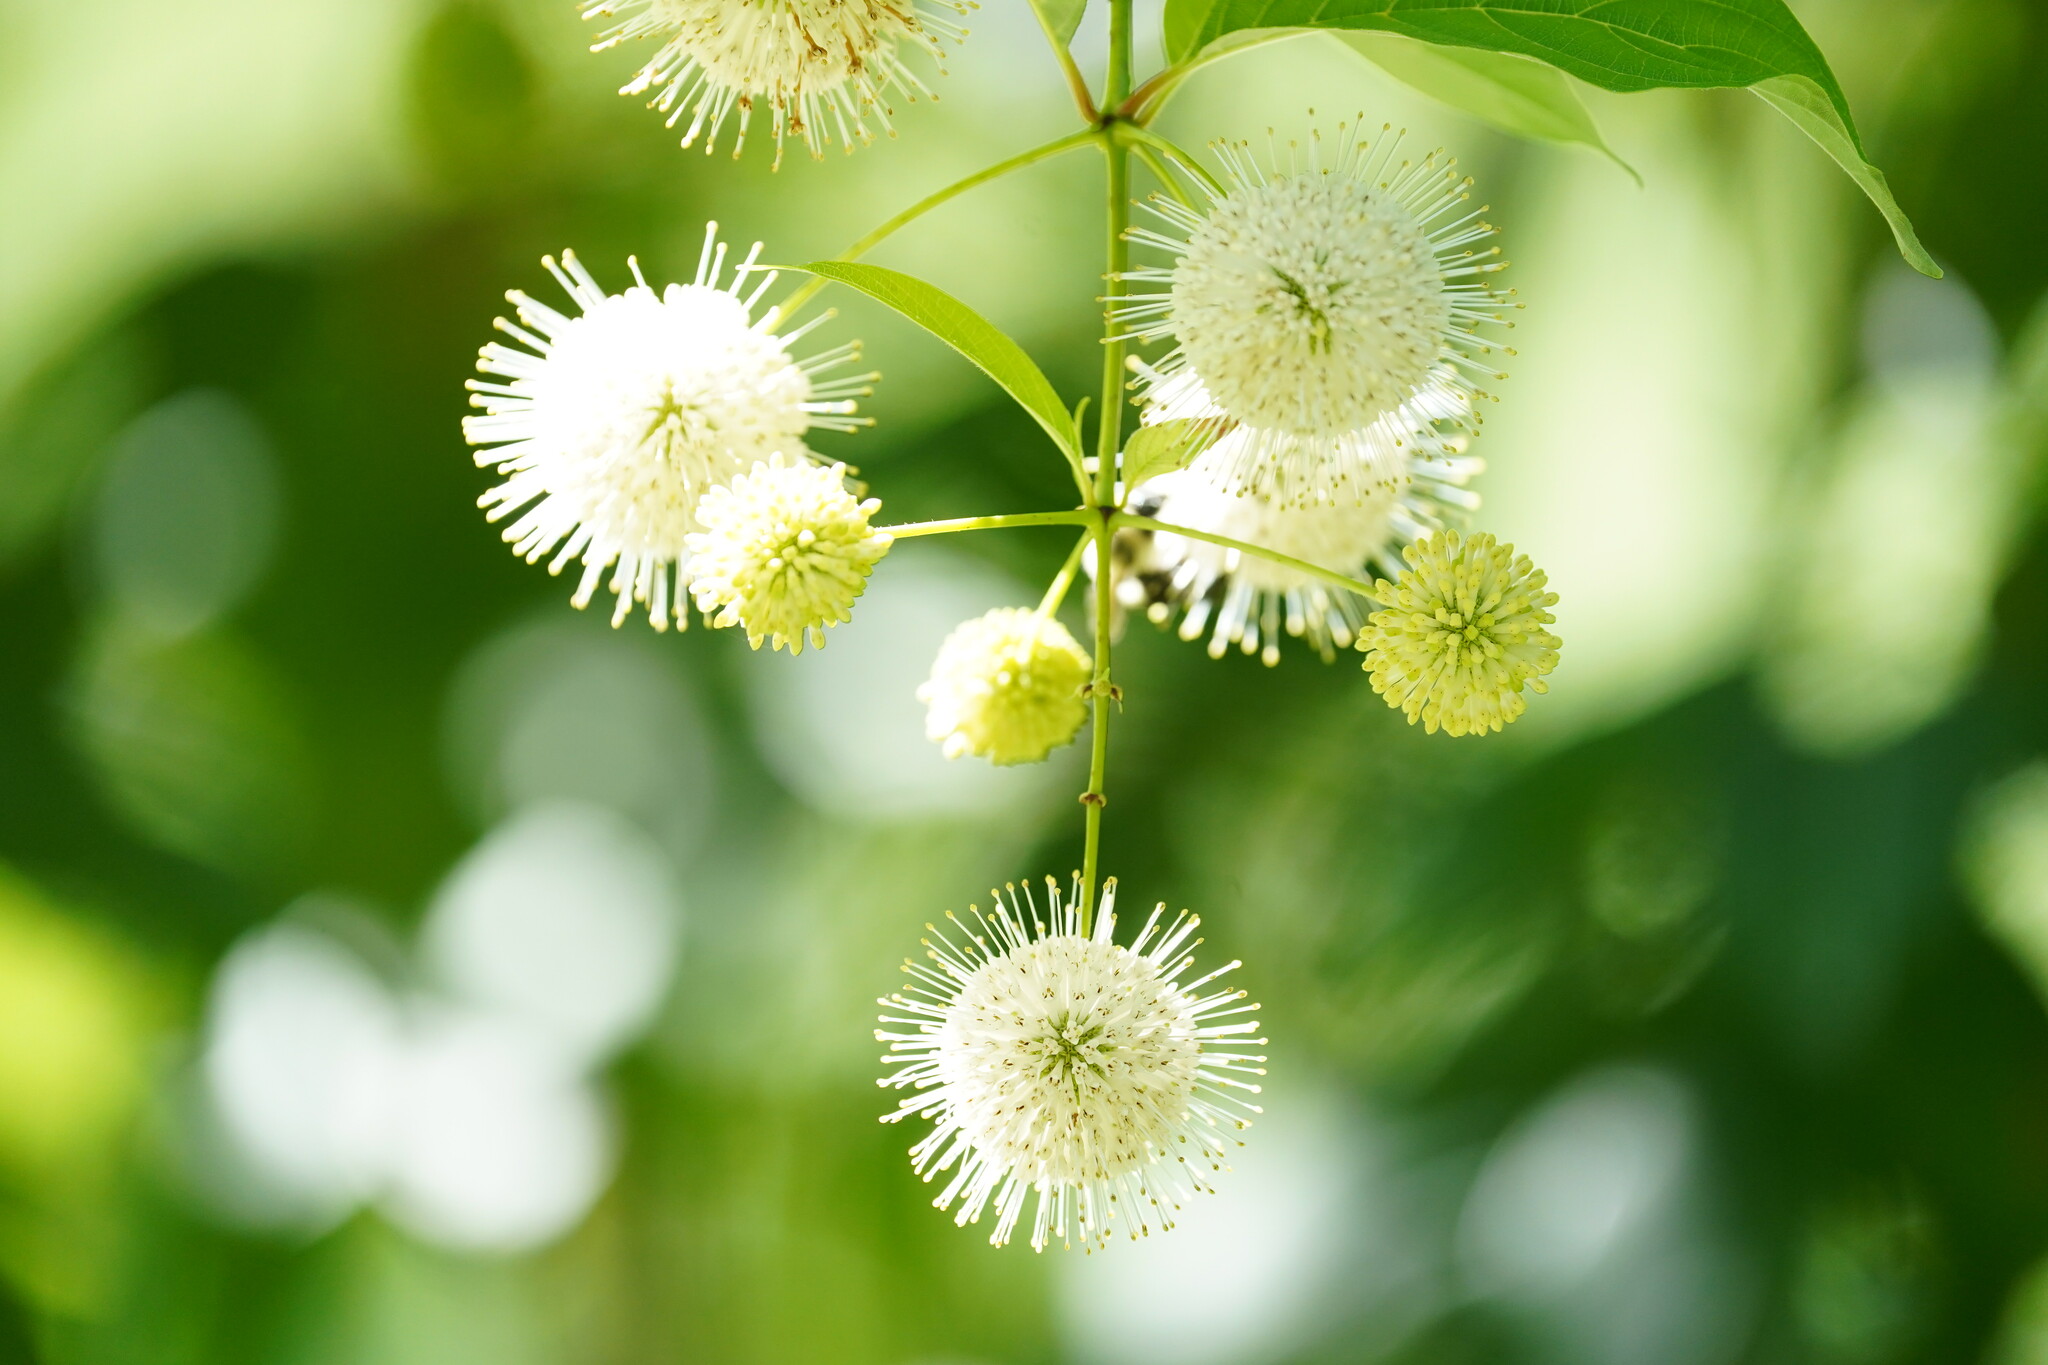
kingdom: Plantae
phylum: Tracheophyta
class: Magnoliopsida
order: Gentianales
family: Rubiaceae
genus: Cephalanthus
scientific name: Cephalanthus occidentalis
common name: Button-willow
